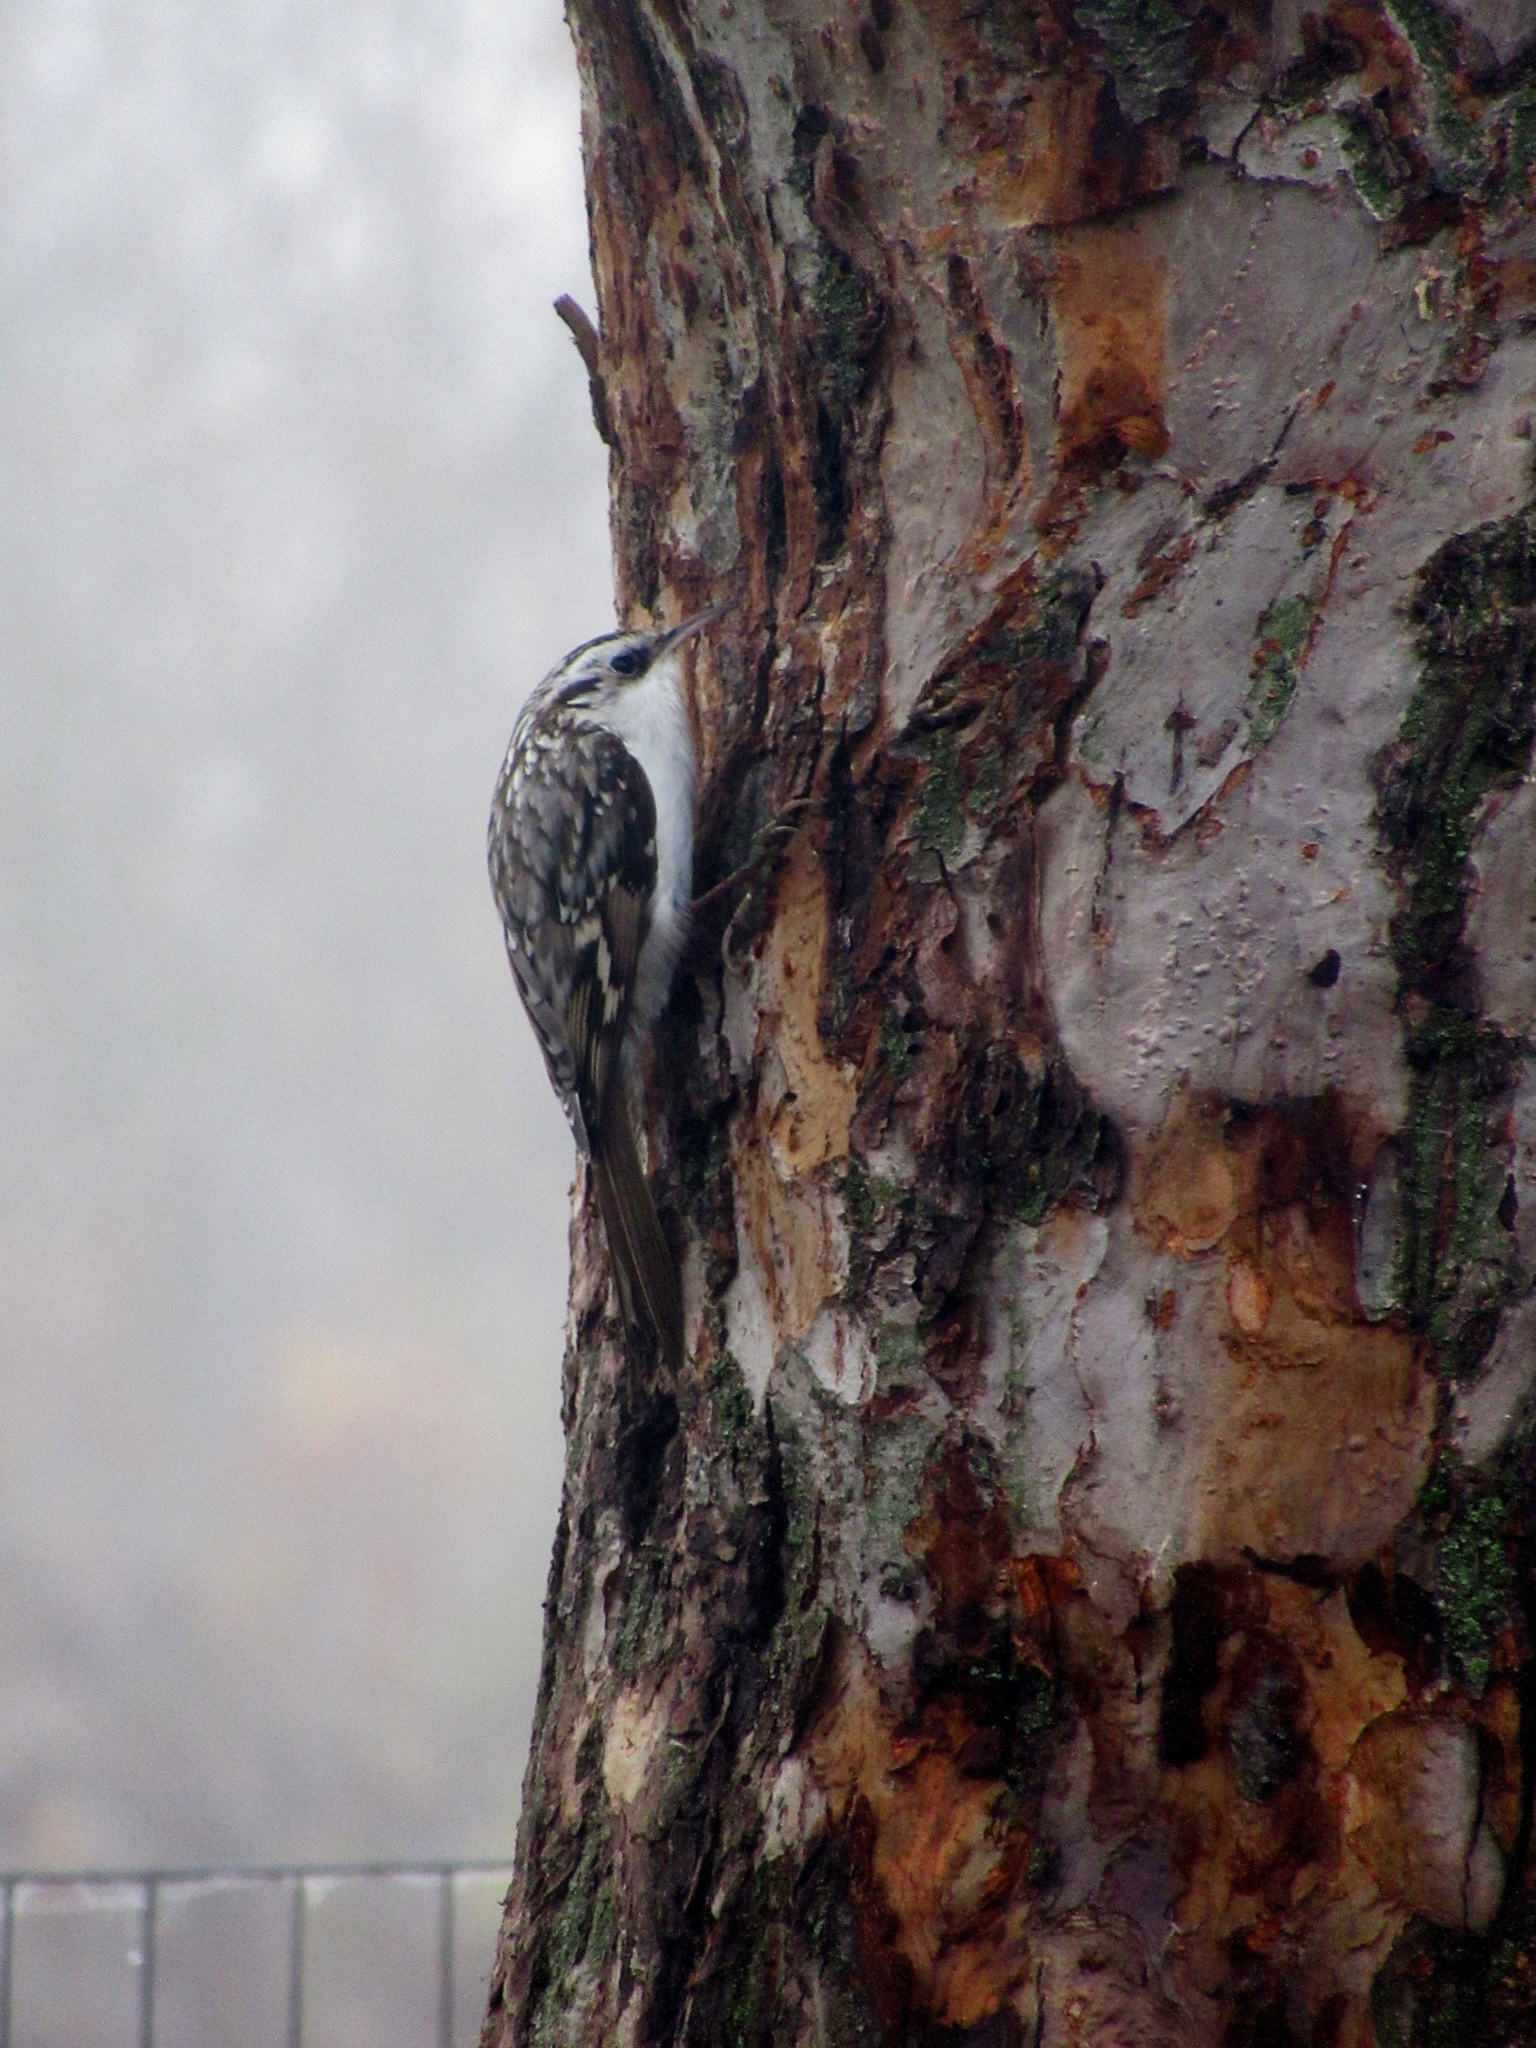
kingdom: Animalia
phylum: Chordata
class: Aves
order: Passeriformes
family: Certhiidae
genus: Certhia
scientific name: Certhia familiaris
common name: Eurasian treecreeper
